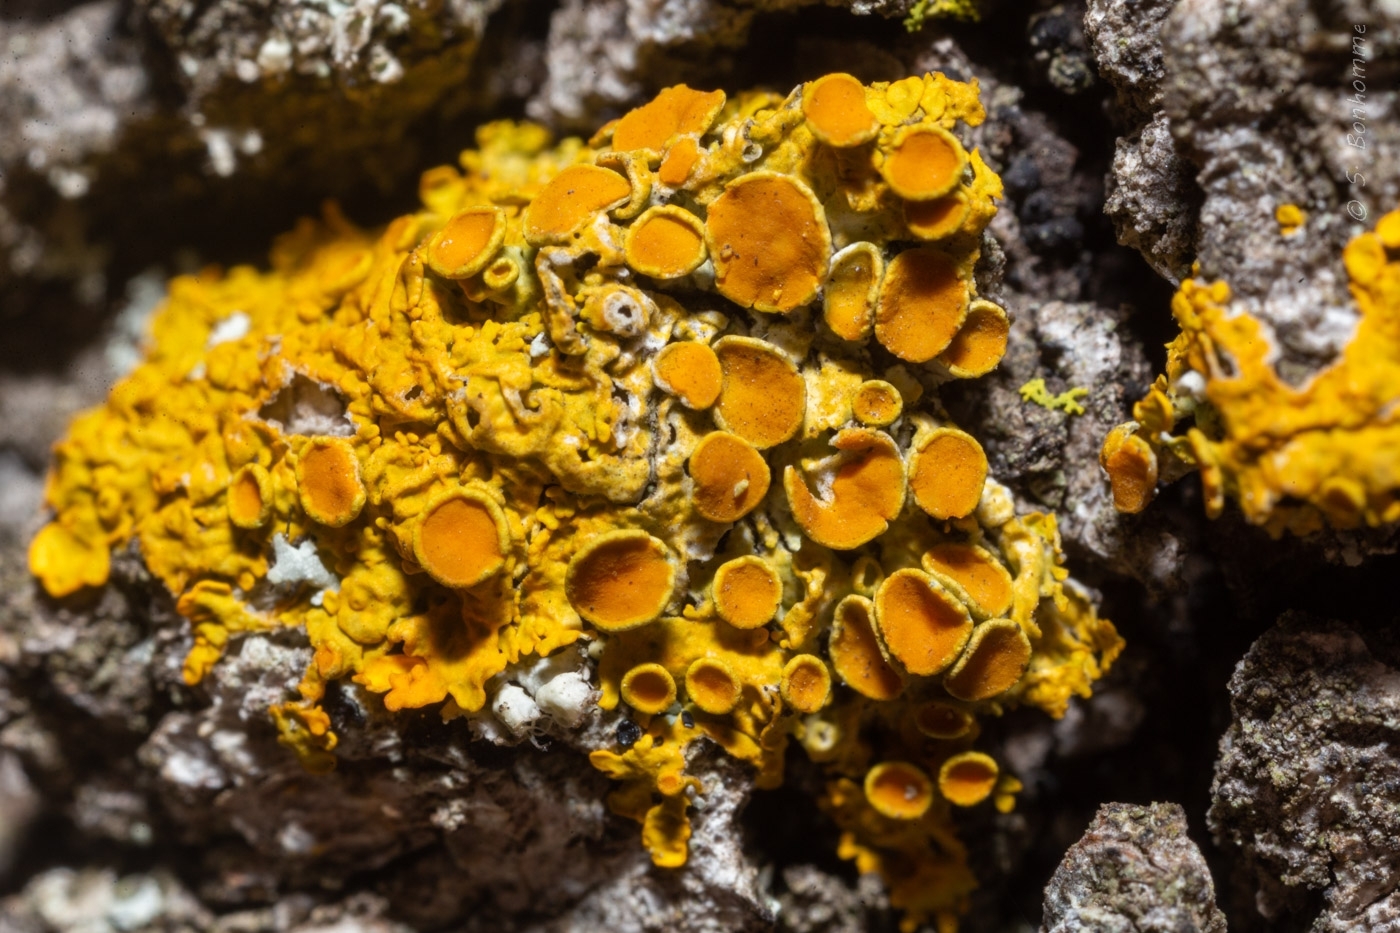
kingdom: Fungi
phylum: Ascomycota
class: Lecanoromycetes
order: Teloschistales
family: Teloschistaceae
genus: Xanthoria
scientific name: Xanthoria parietina
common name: Common orange lichen
